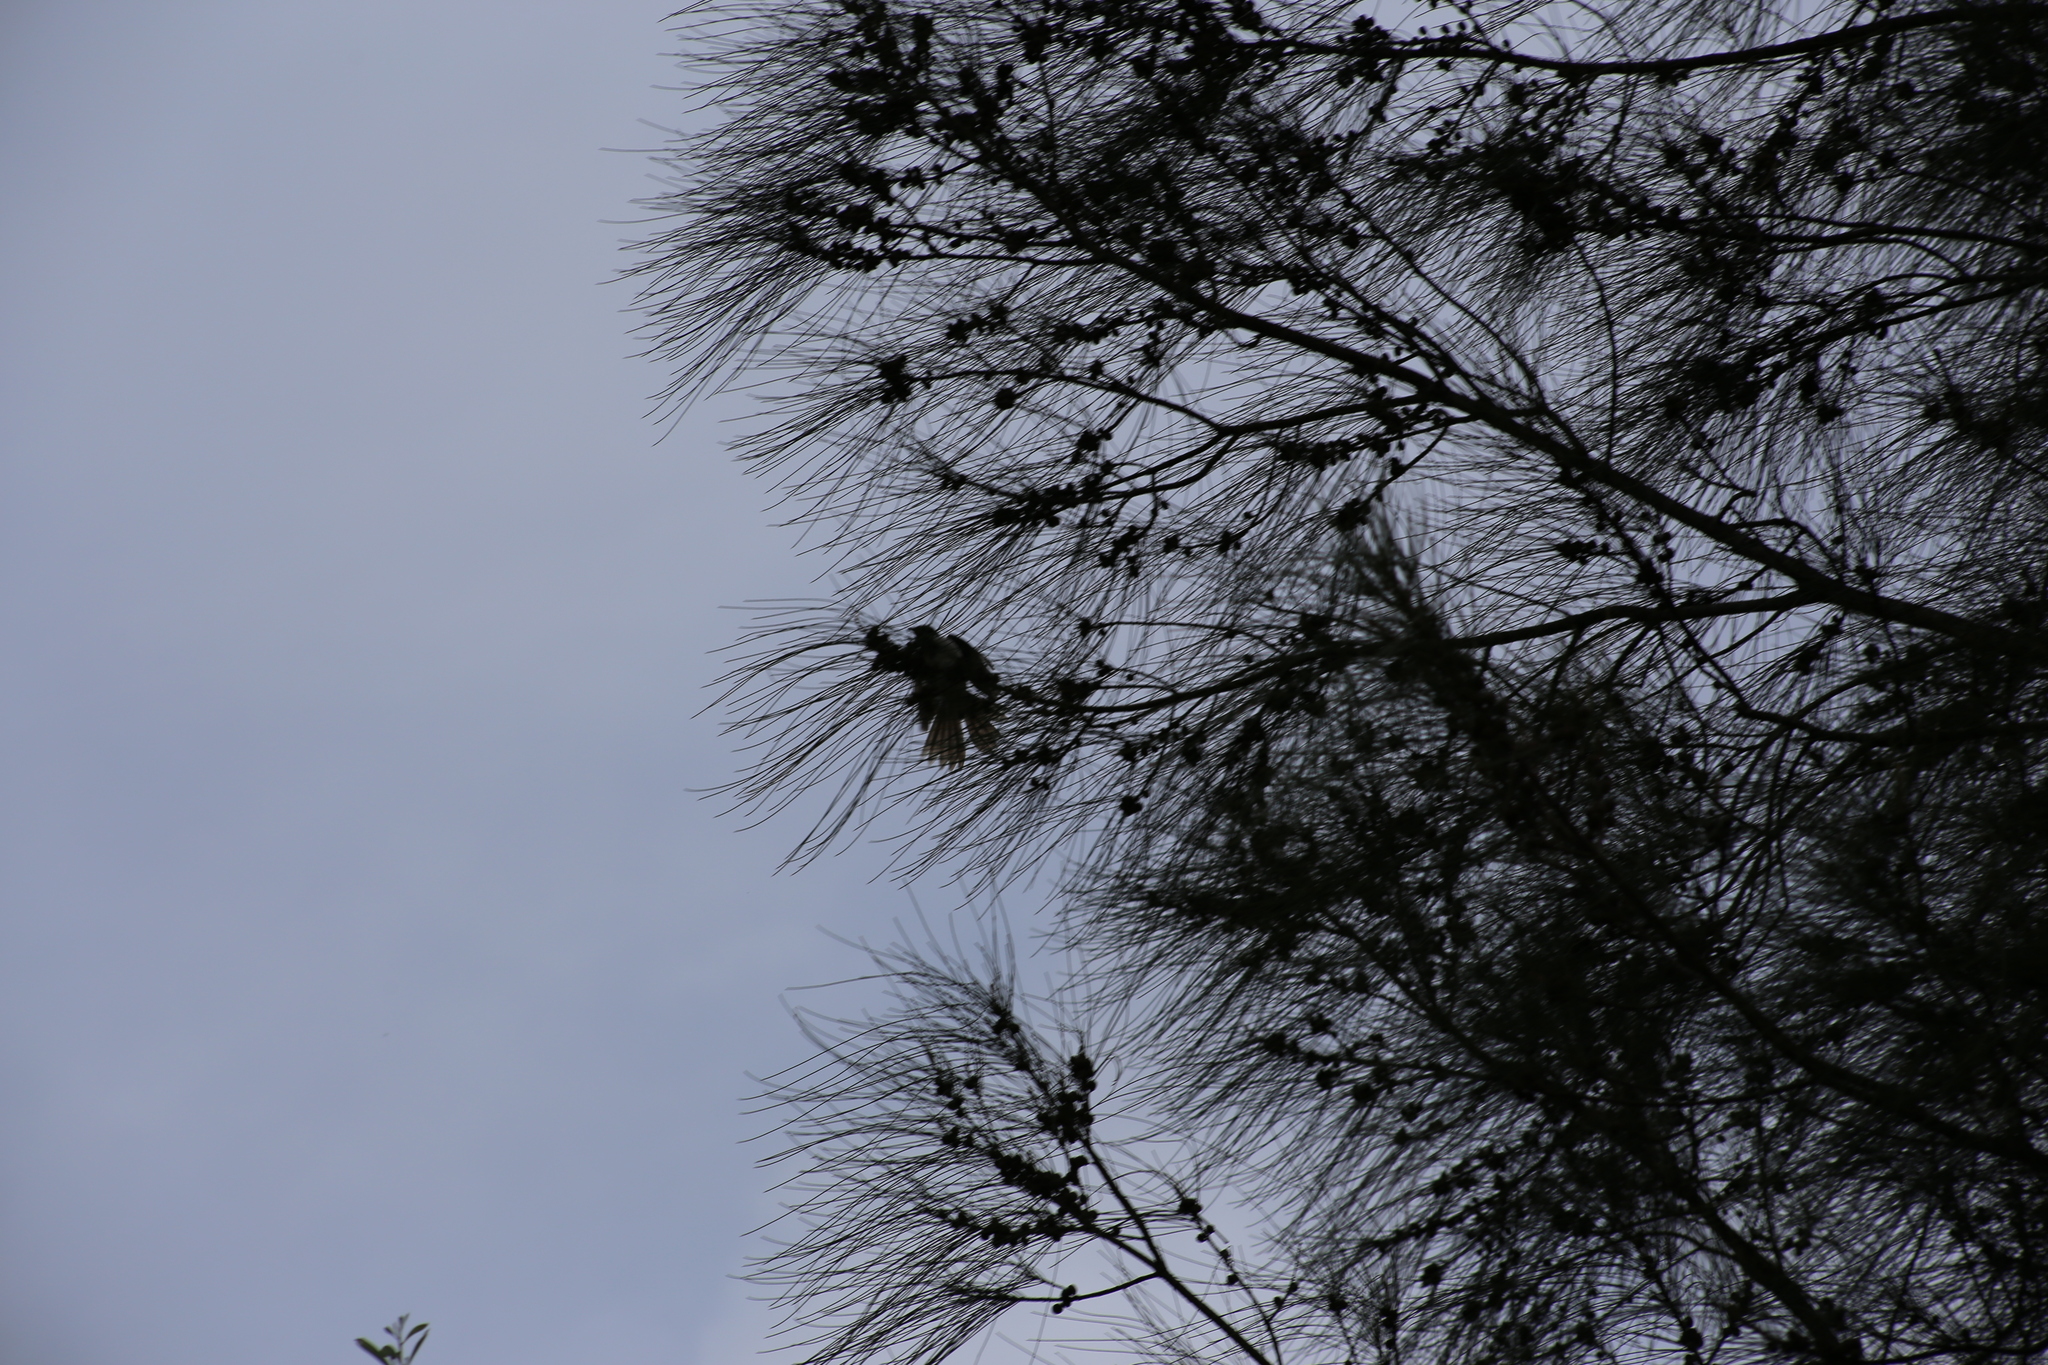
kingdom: Animalia
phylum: Chordata
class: Aves
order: Passeriformes
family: Meliphagidae
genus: Entomyzon
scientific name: Entomyzon cyanotis
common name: Blue-faced honeyeater
